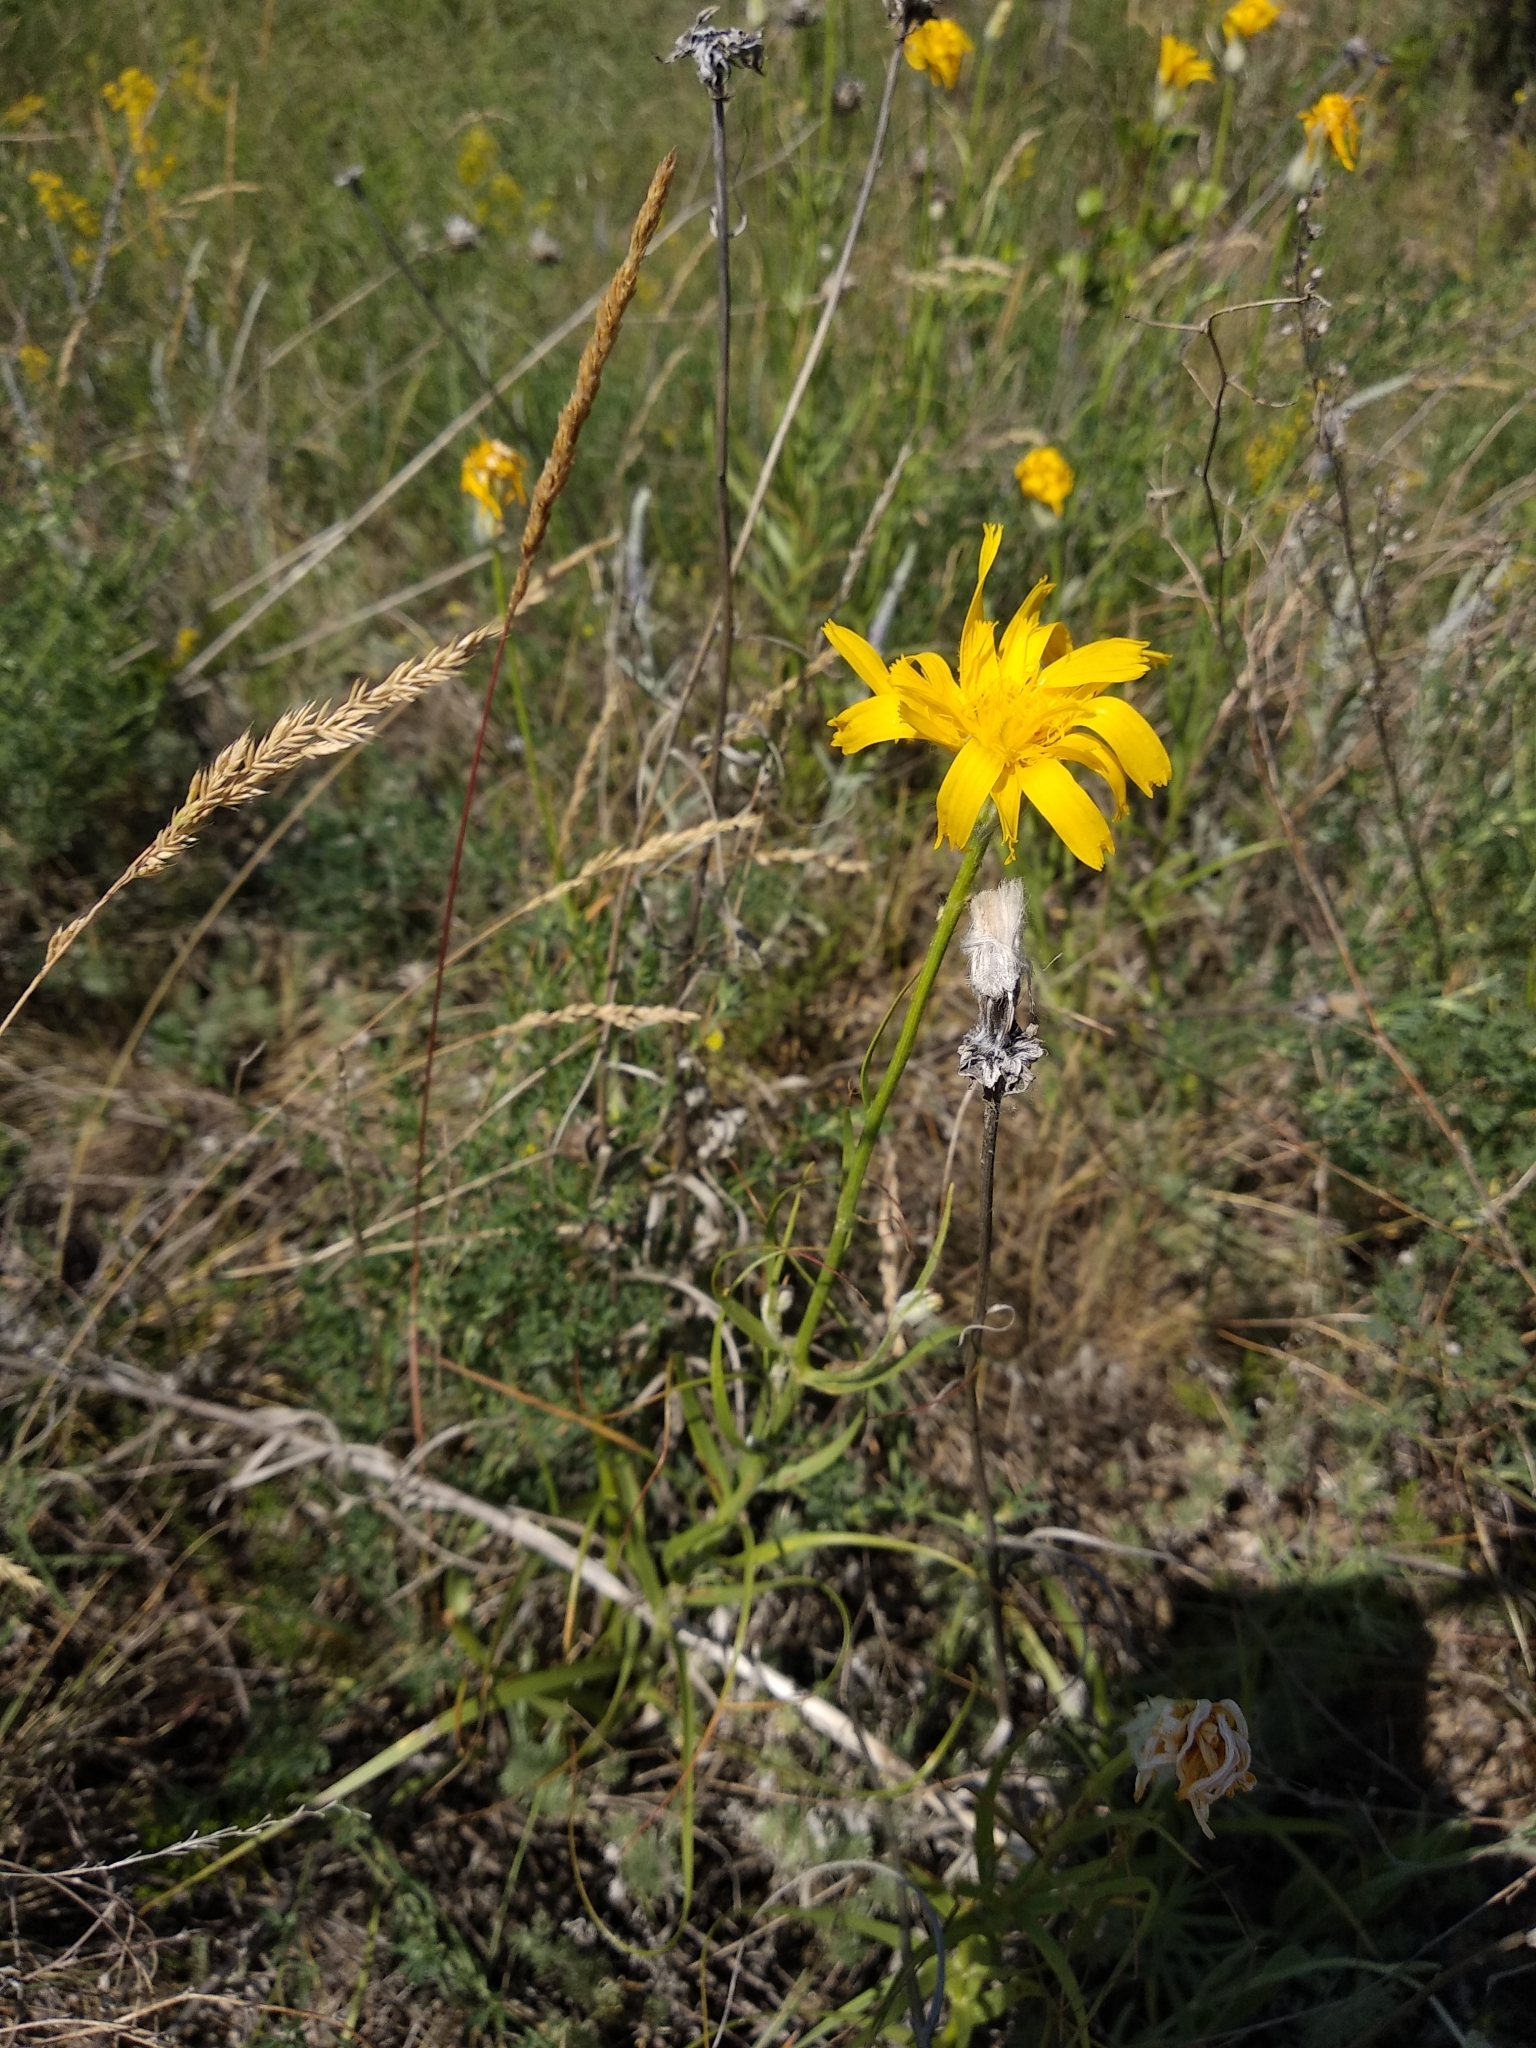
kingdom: Plantae
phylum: Tracheophyta
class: Magnoliopsida
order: Asterales
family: Asteraceae
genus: Gelasia
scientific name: Gelasia ensifolia
